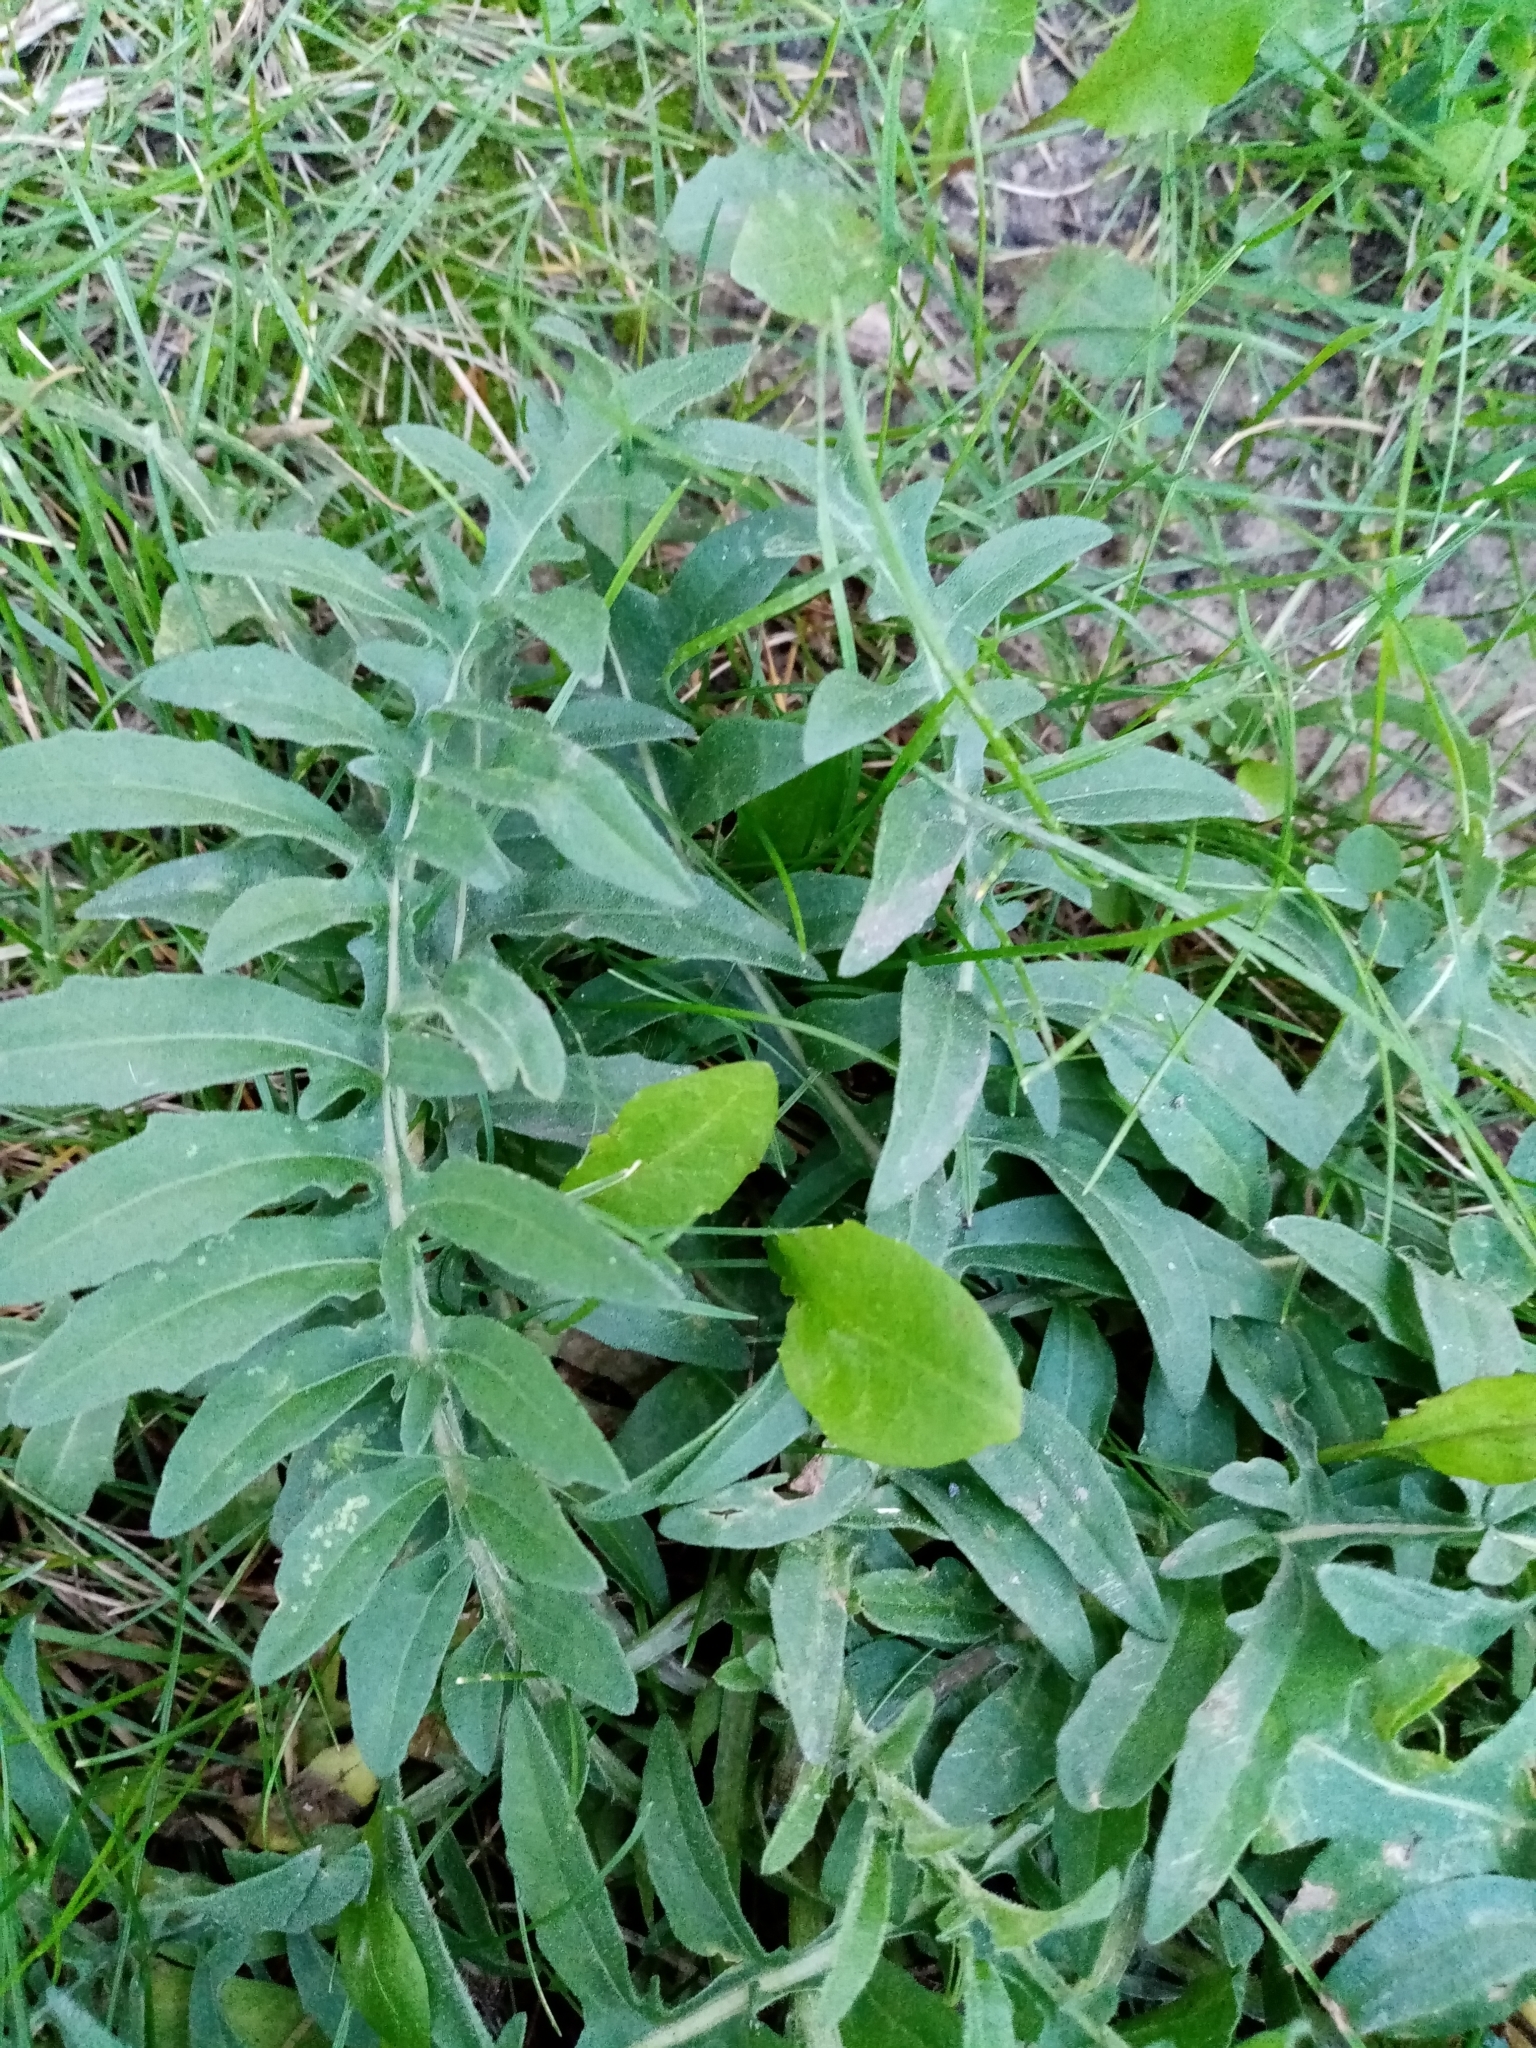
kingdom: Plantae
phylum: Tracheophyta
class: Magnoliopsida
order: Asterales
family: Asteraceae
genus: Centaurea
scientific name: Centaurea scabiosa
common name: Greater knapweed
